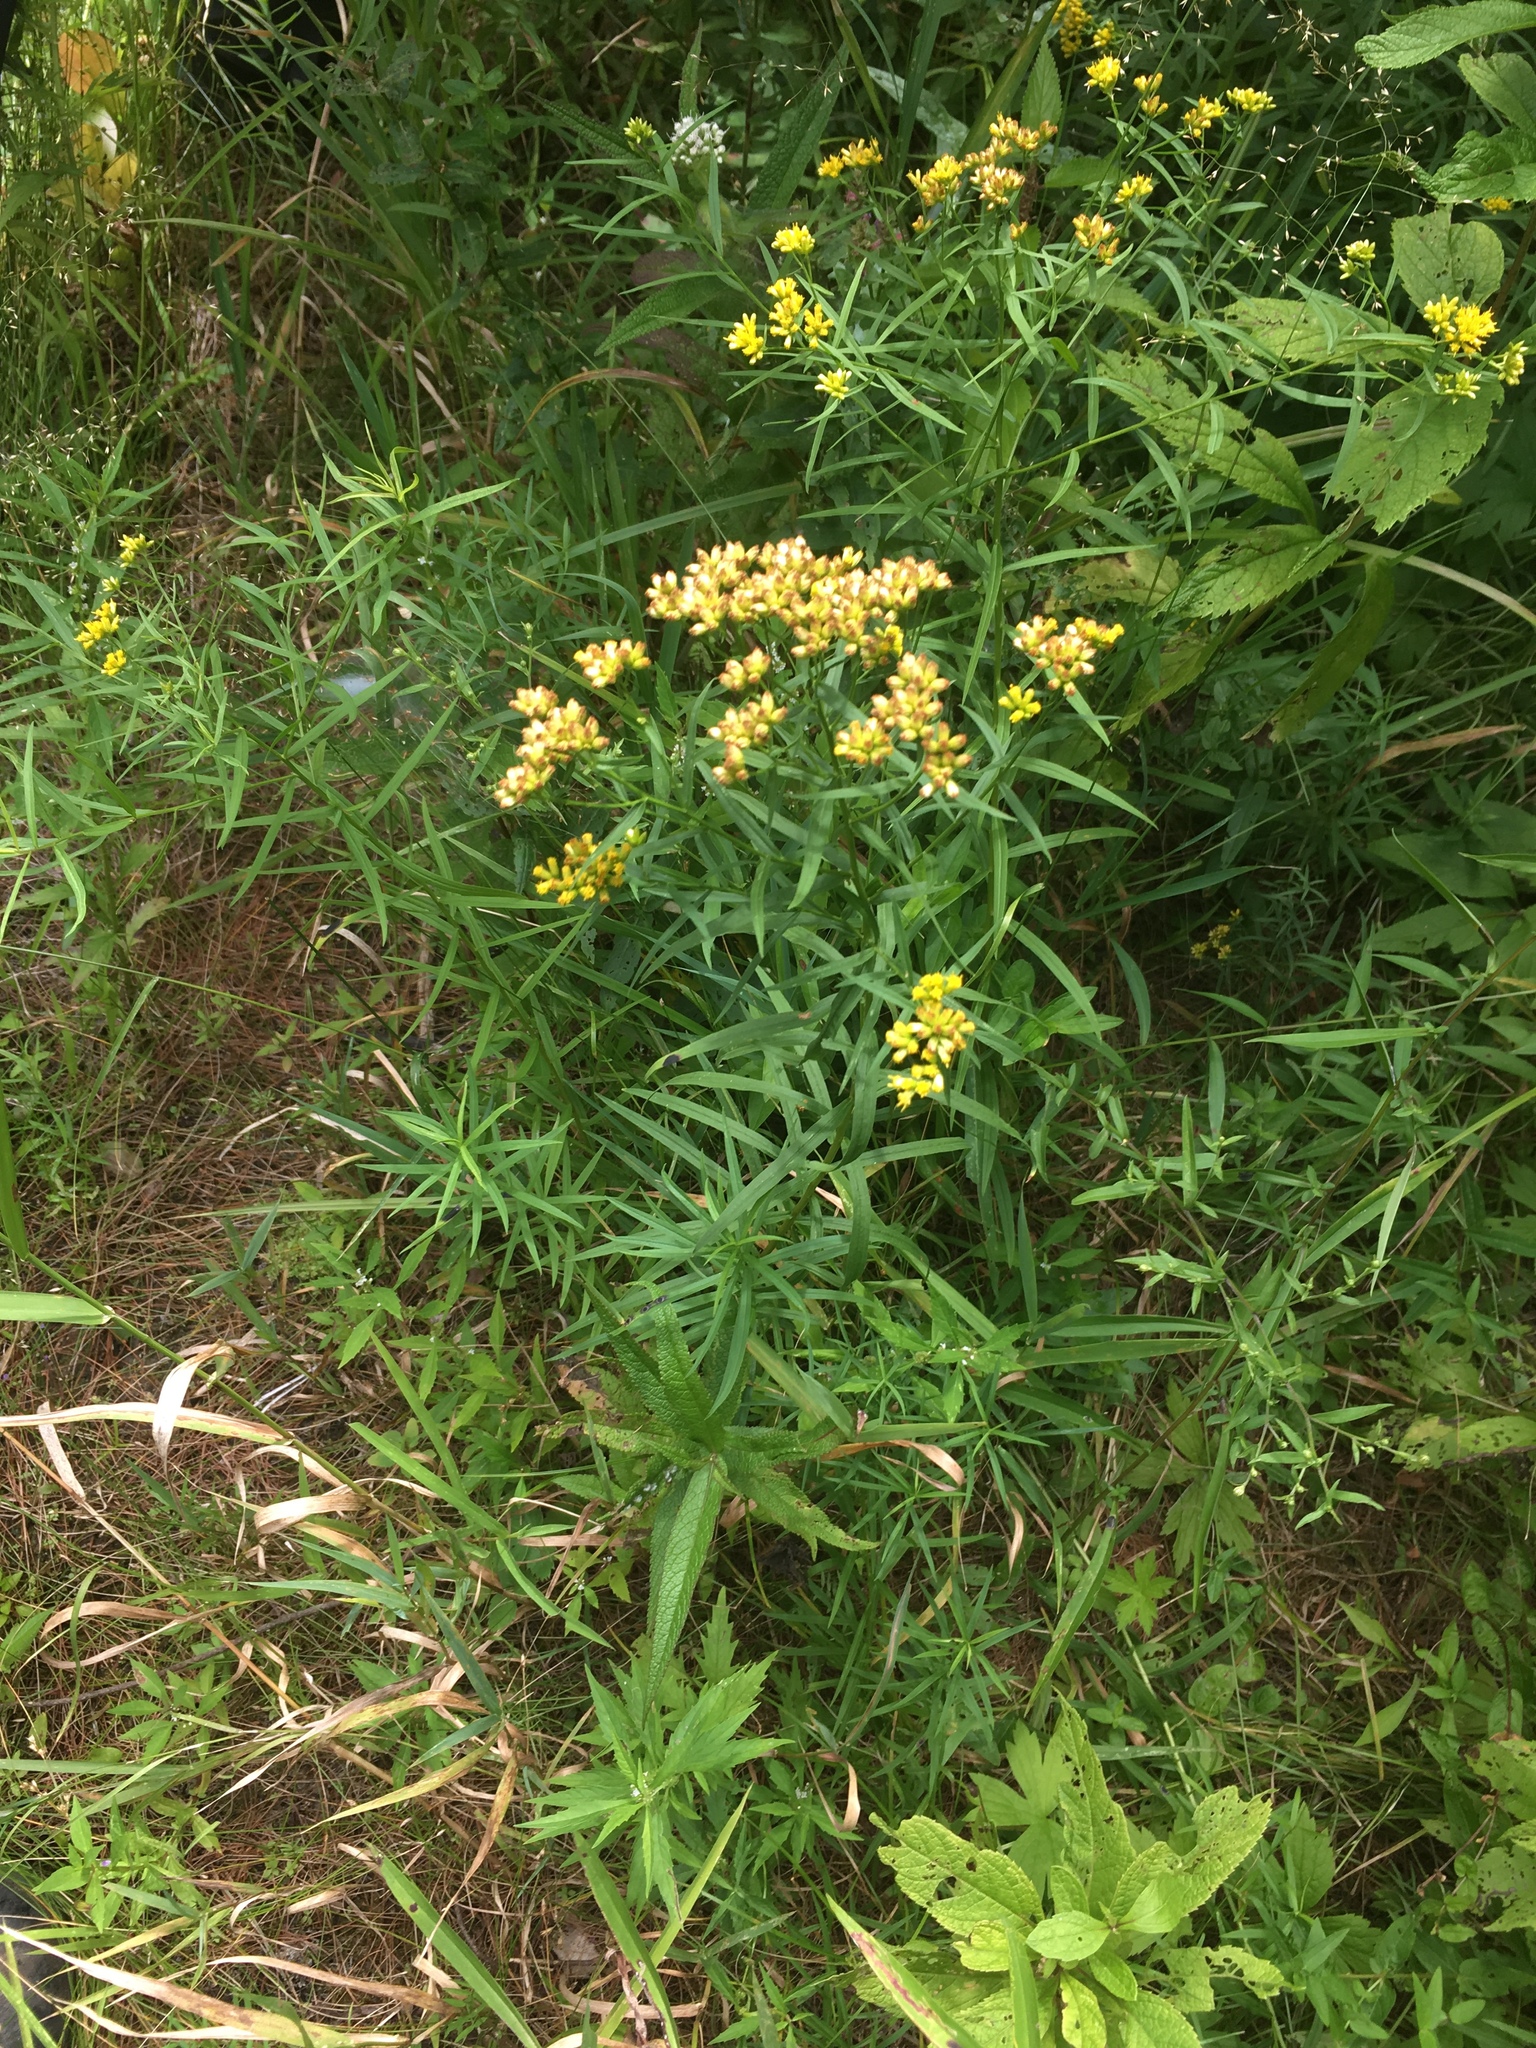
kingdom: Plantae
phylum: Tracheophyta
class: Magnoliopsida
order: Asterales
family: Asteraceae
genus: Euthamia
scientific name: Euthamia graminifolia
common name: Common goldentop
